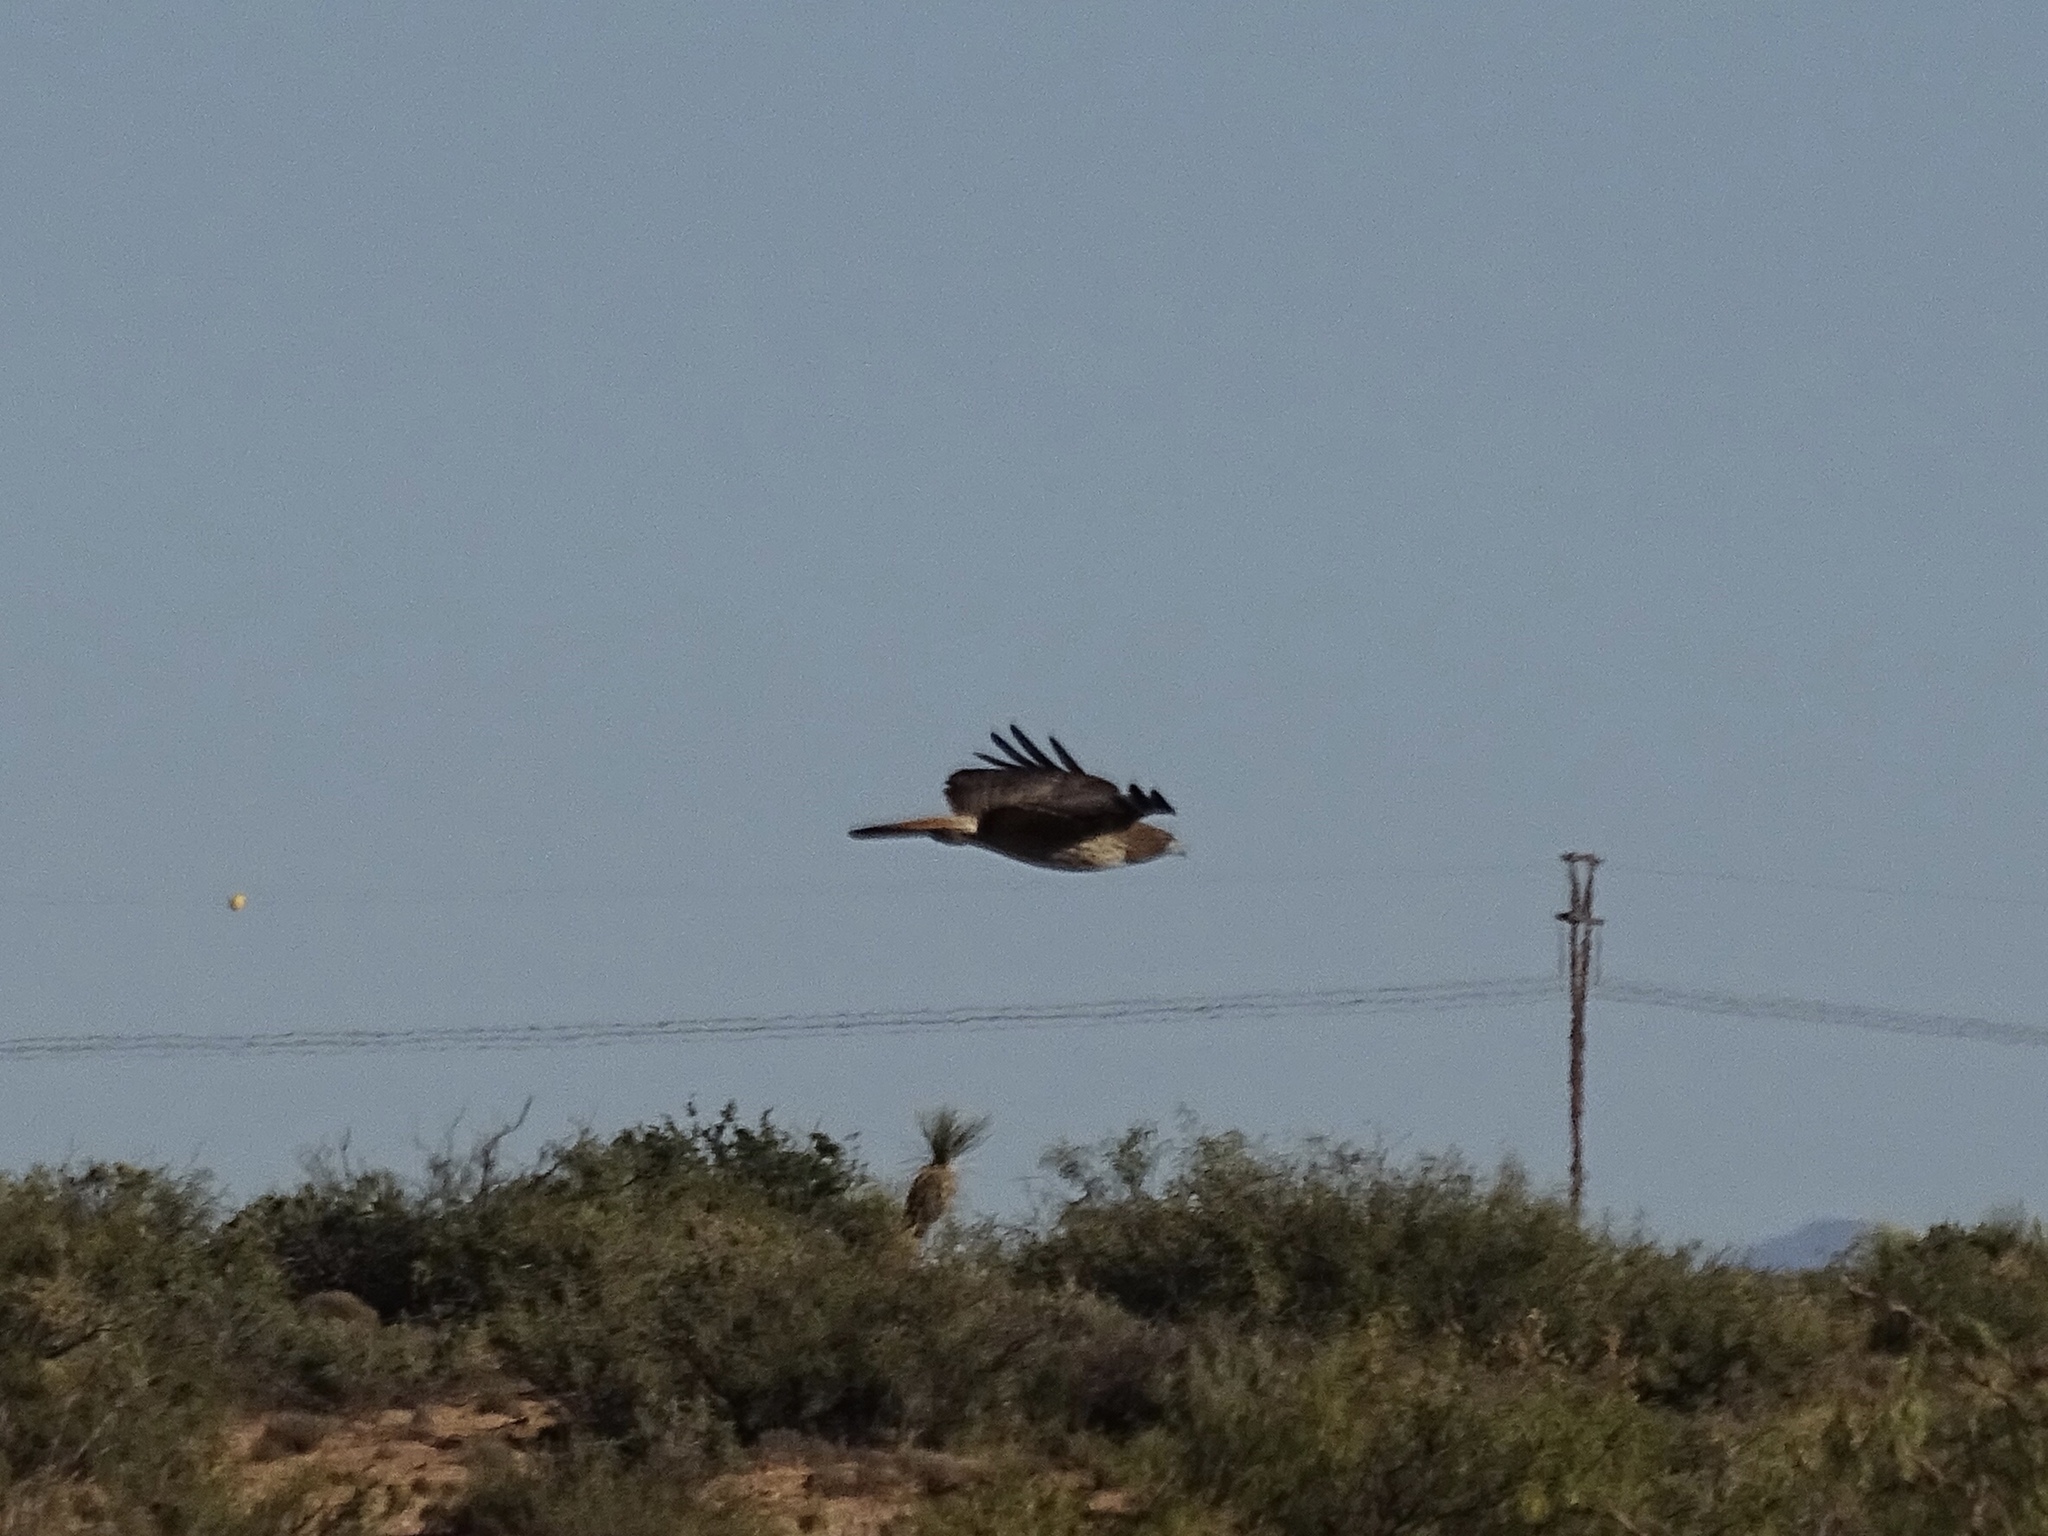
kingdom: Animalia
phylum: Chordata
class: Aves
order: Accipitriformes
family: Accipitridae
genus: Buteo
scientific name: Buteo jamaicensis
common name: Red-tailed hawk
